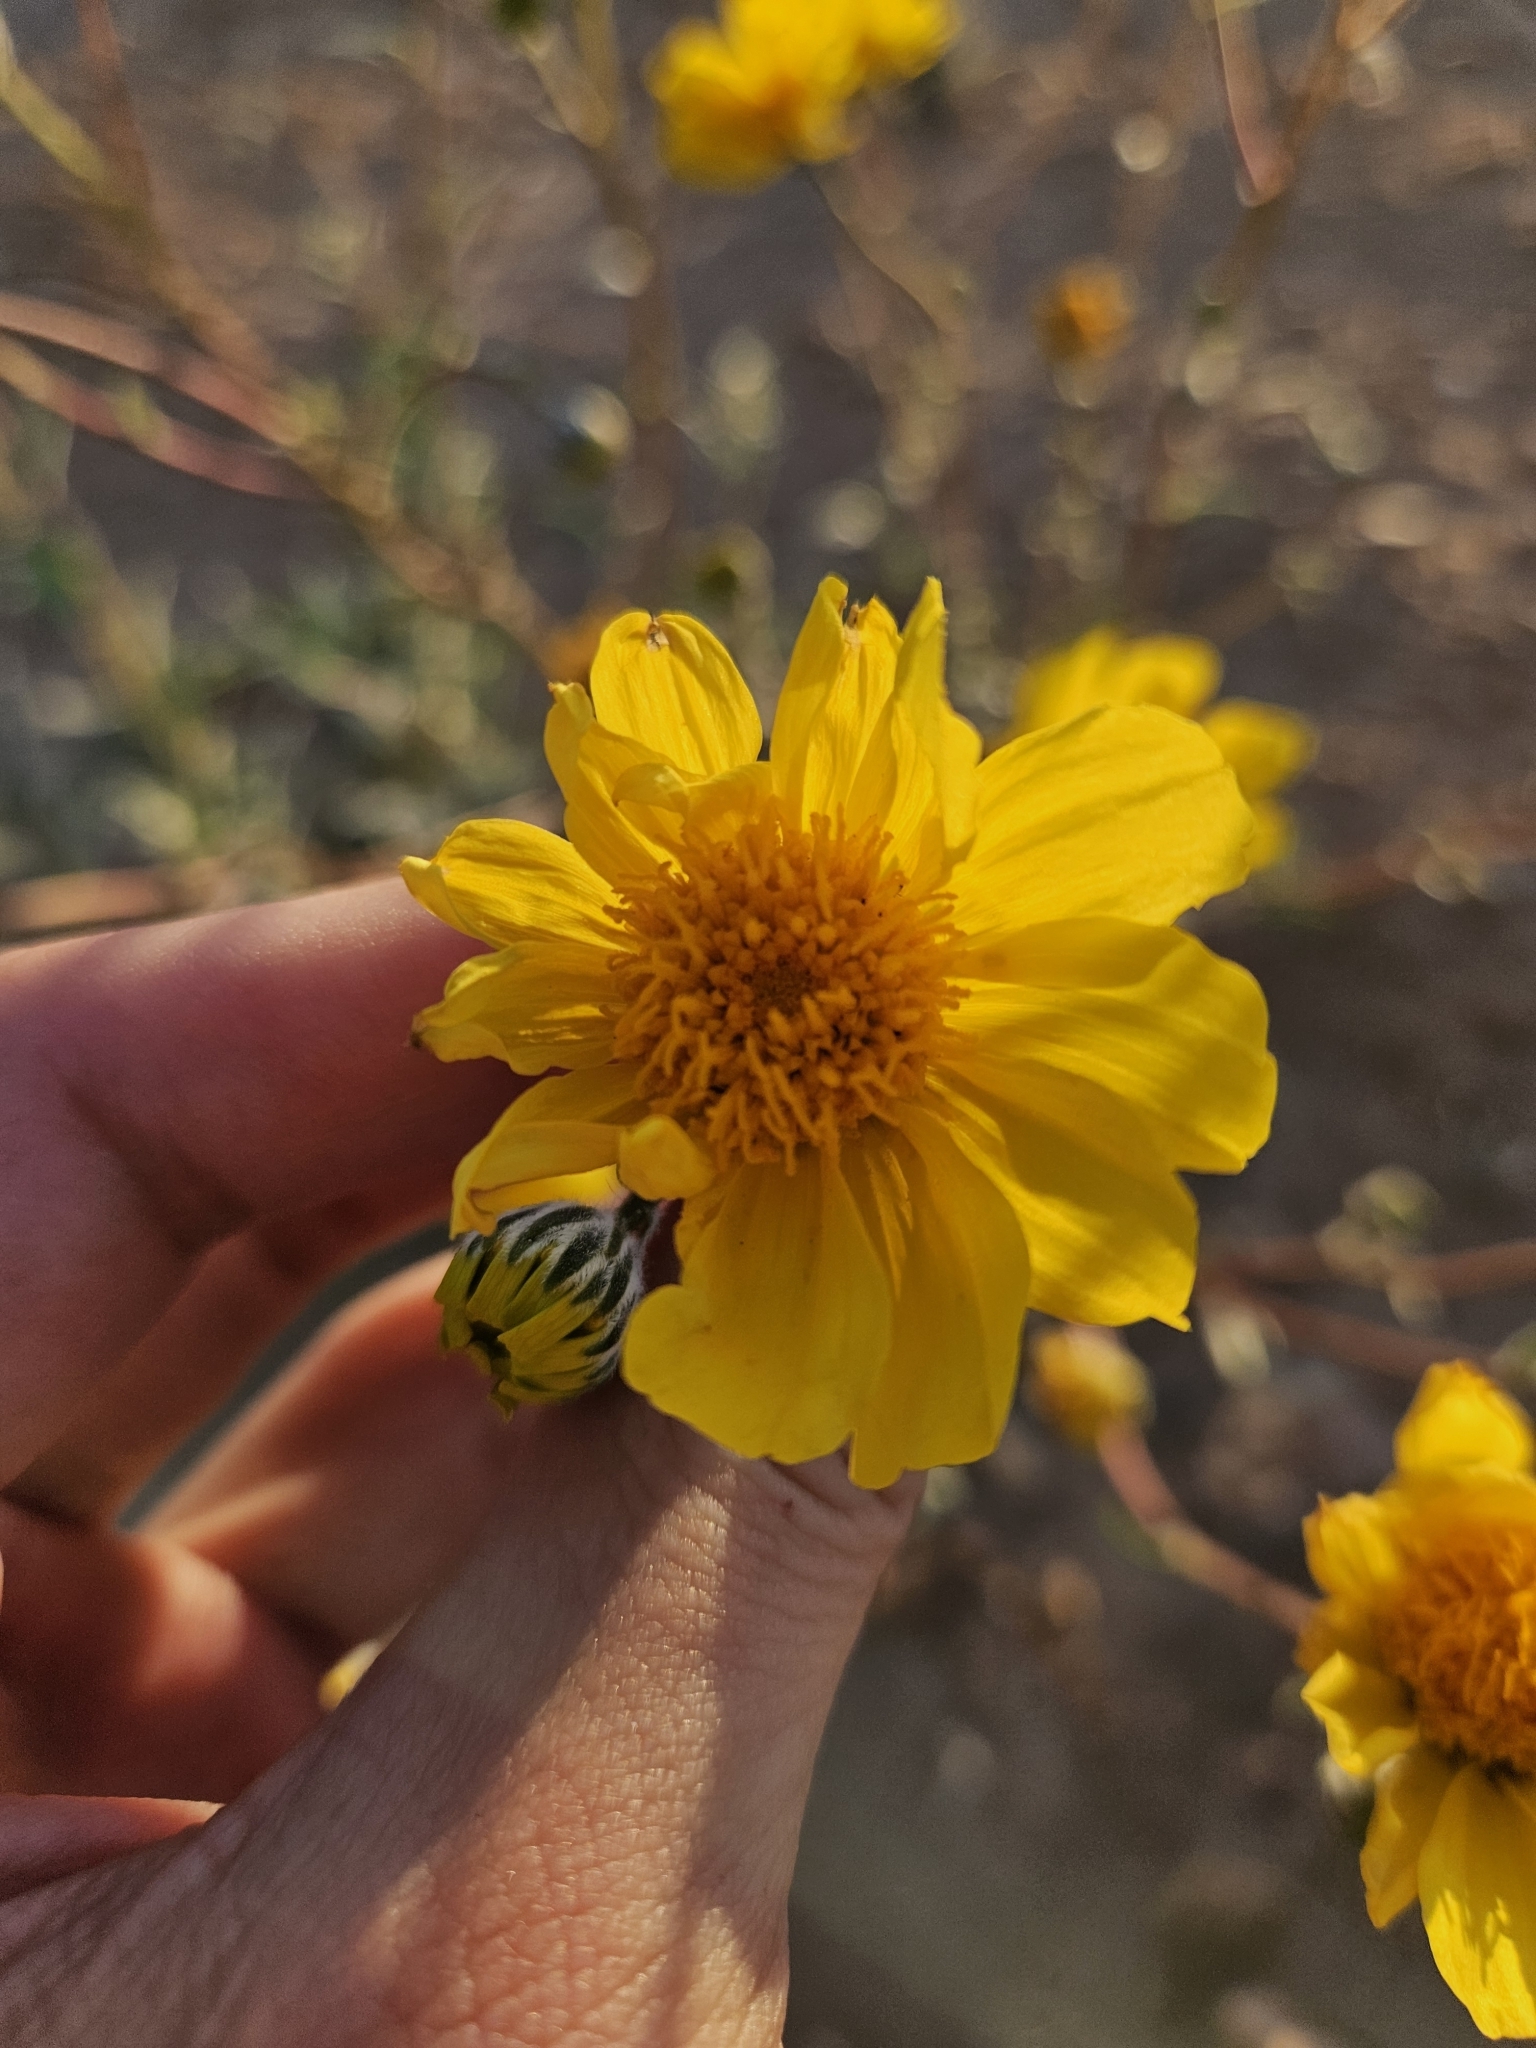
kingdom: Plantae
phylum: Tracheophyta
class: Magnoliopsida
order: Asterales
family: Asteraceae
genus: Geraea
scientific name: Geraea canescens
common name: Desert-gold
